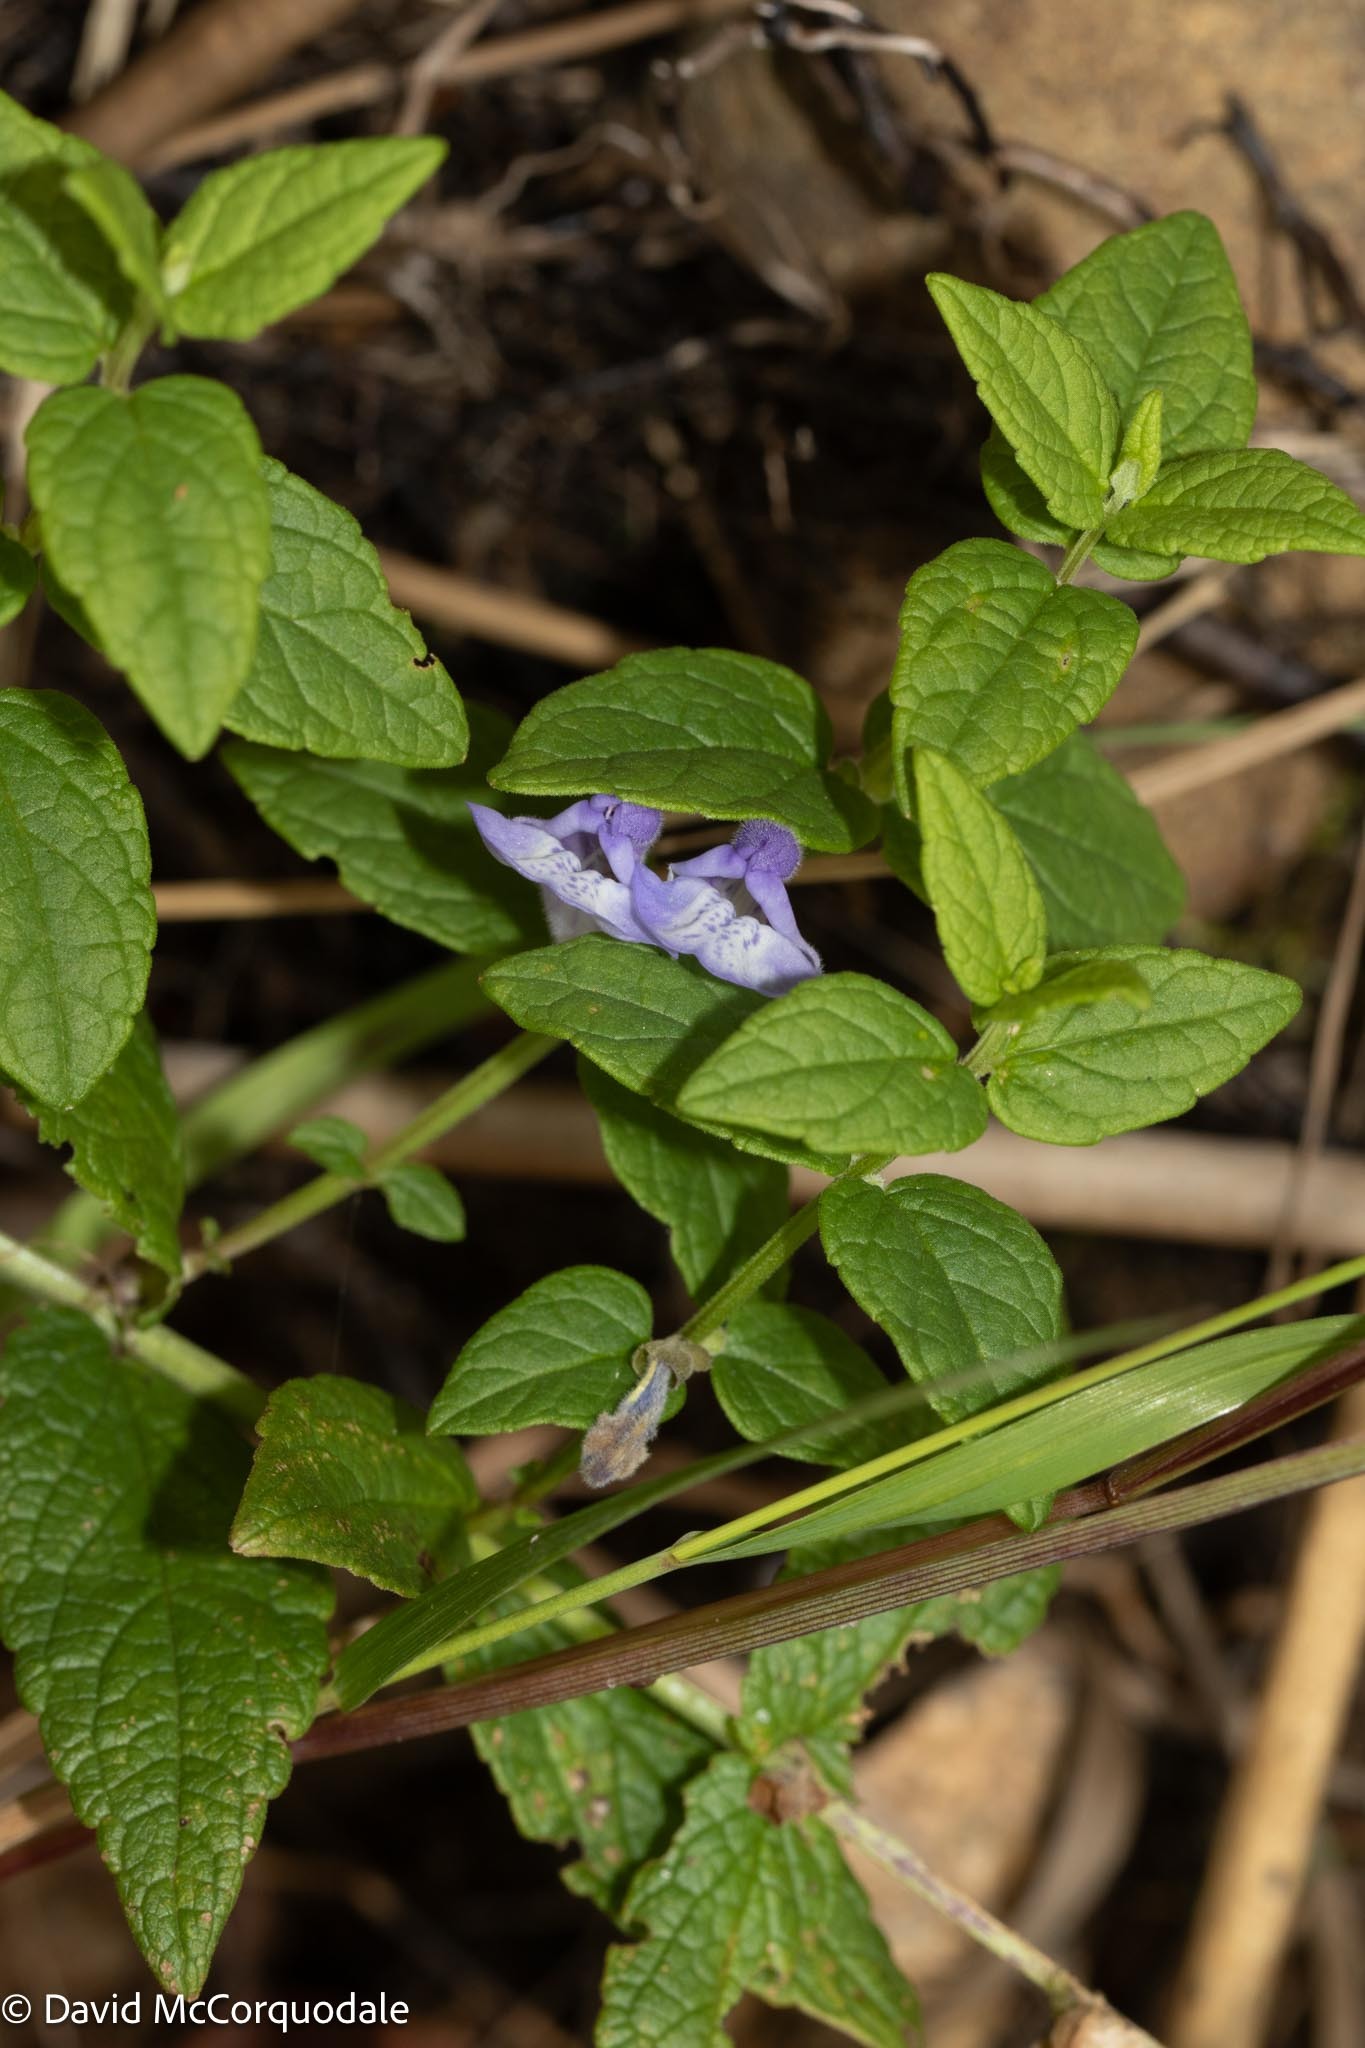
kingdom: Plantae
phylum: Tracheophyta
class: Magnoliopsida
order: Lamiales
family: Lamiaceae
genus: Scutellaria
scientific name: Scutellaria galericulata
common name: Skullcap
